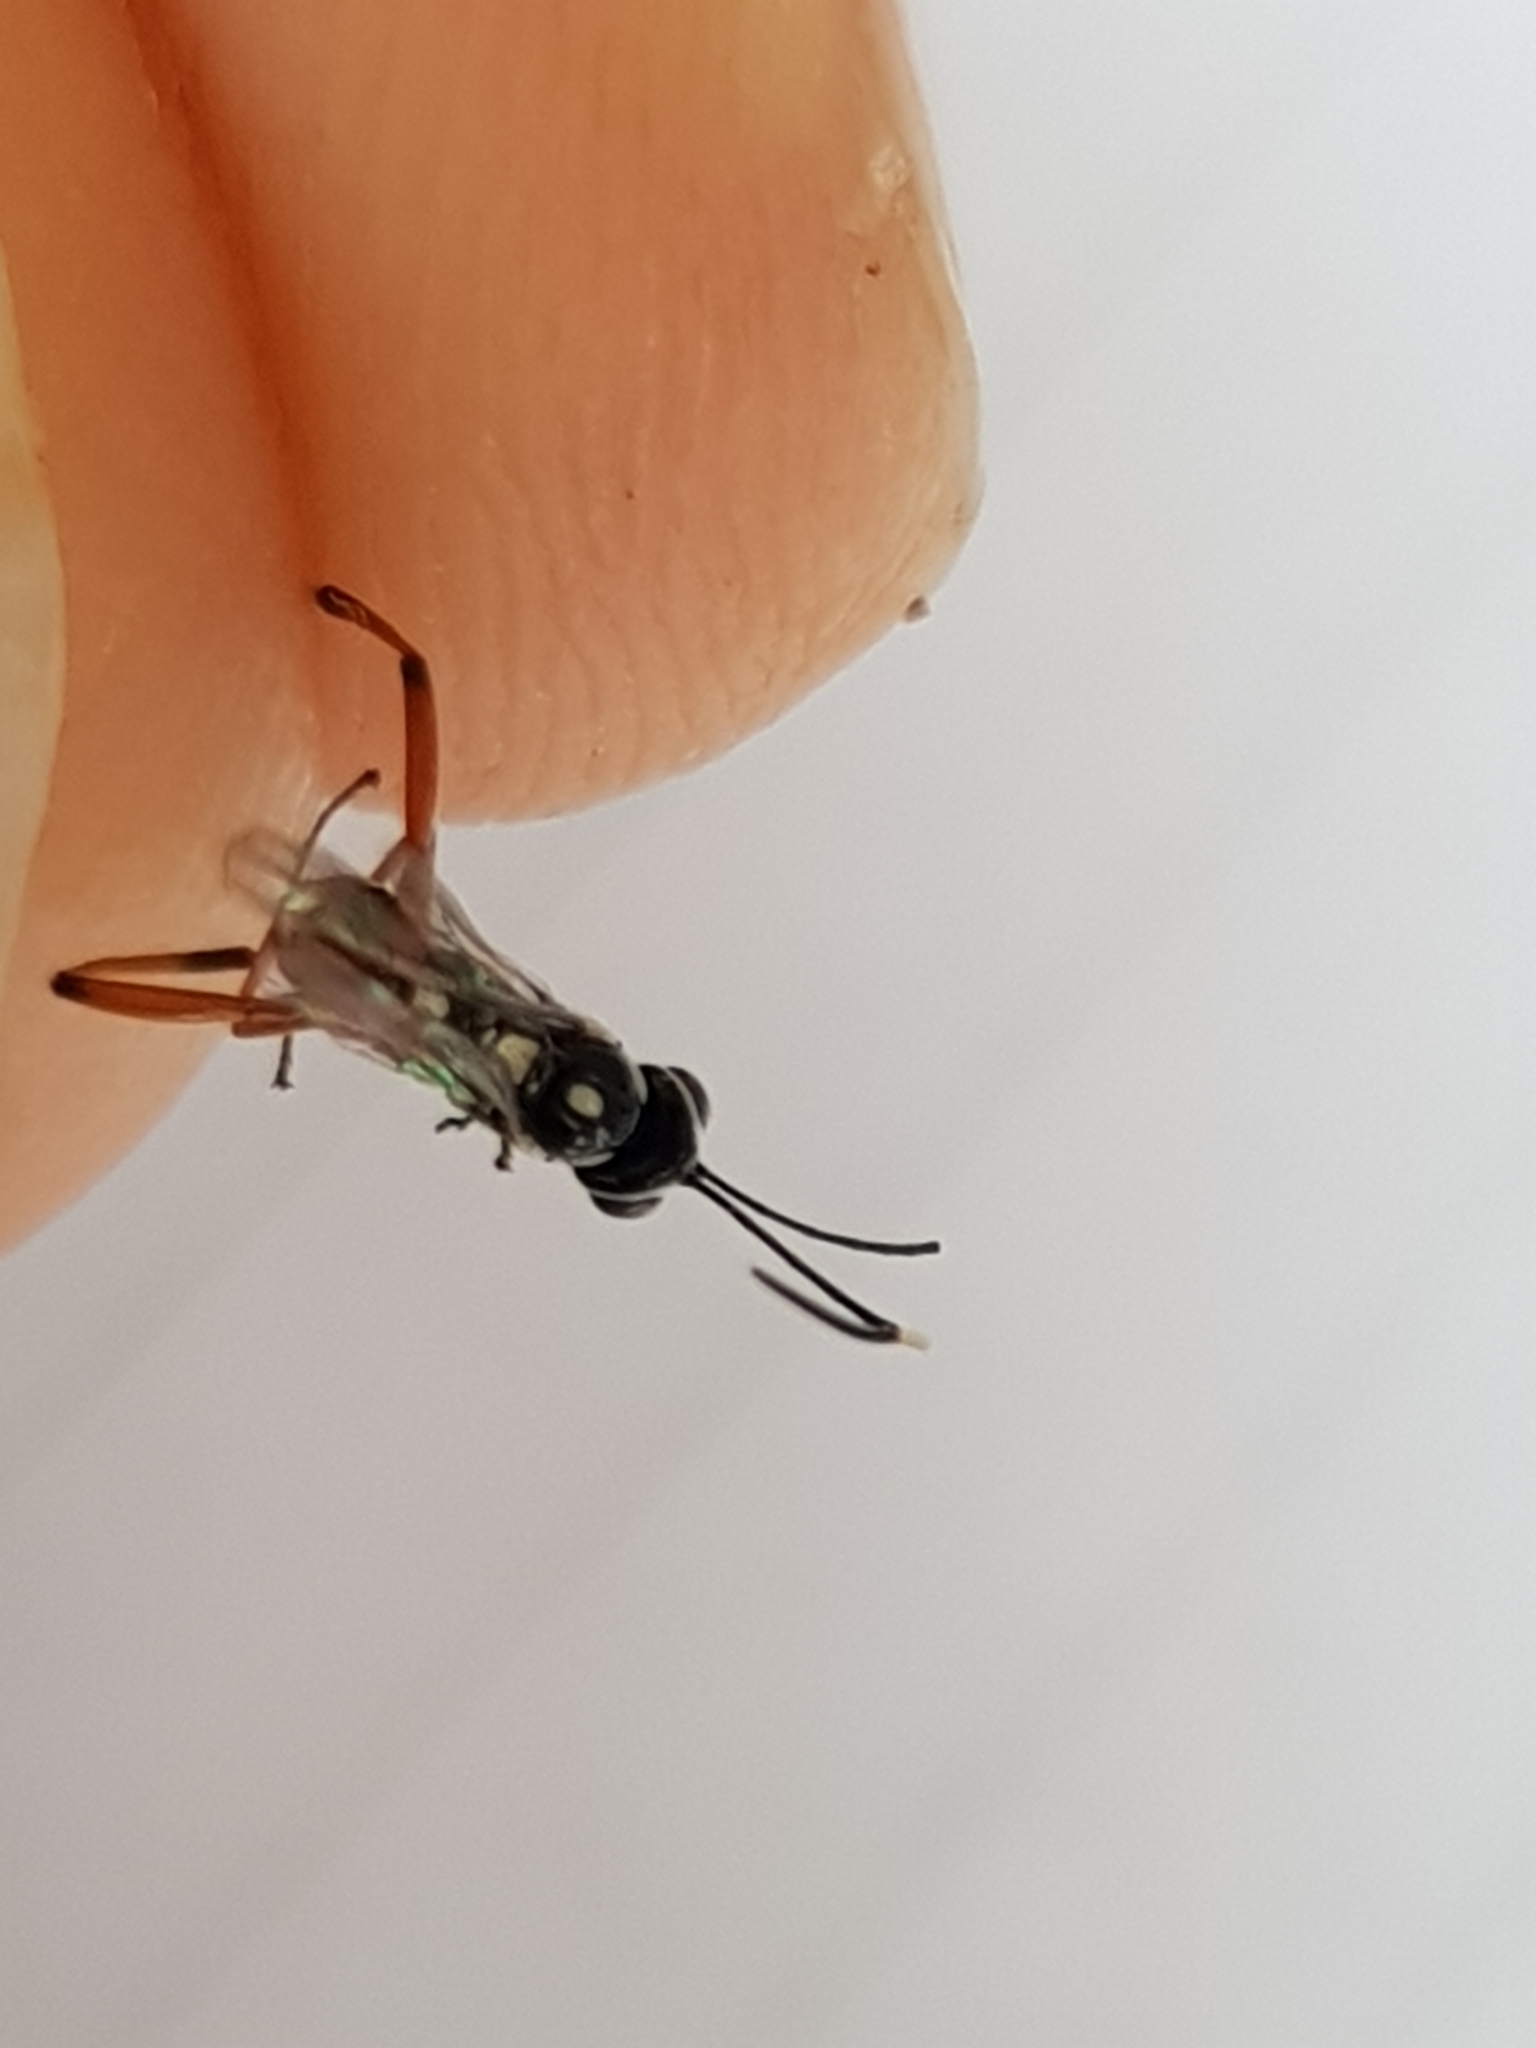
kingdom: Animalia
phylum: Arthropoda
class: Insecta
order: Hymenoptera
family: Ichneumonidae
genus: Glabridorsum
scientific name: Glabridorsum stokesii
